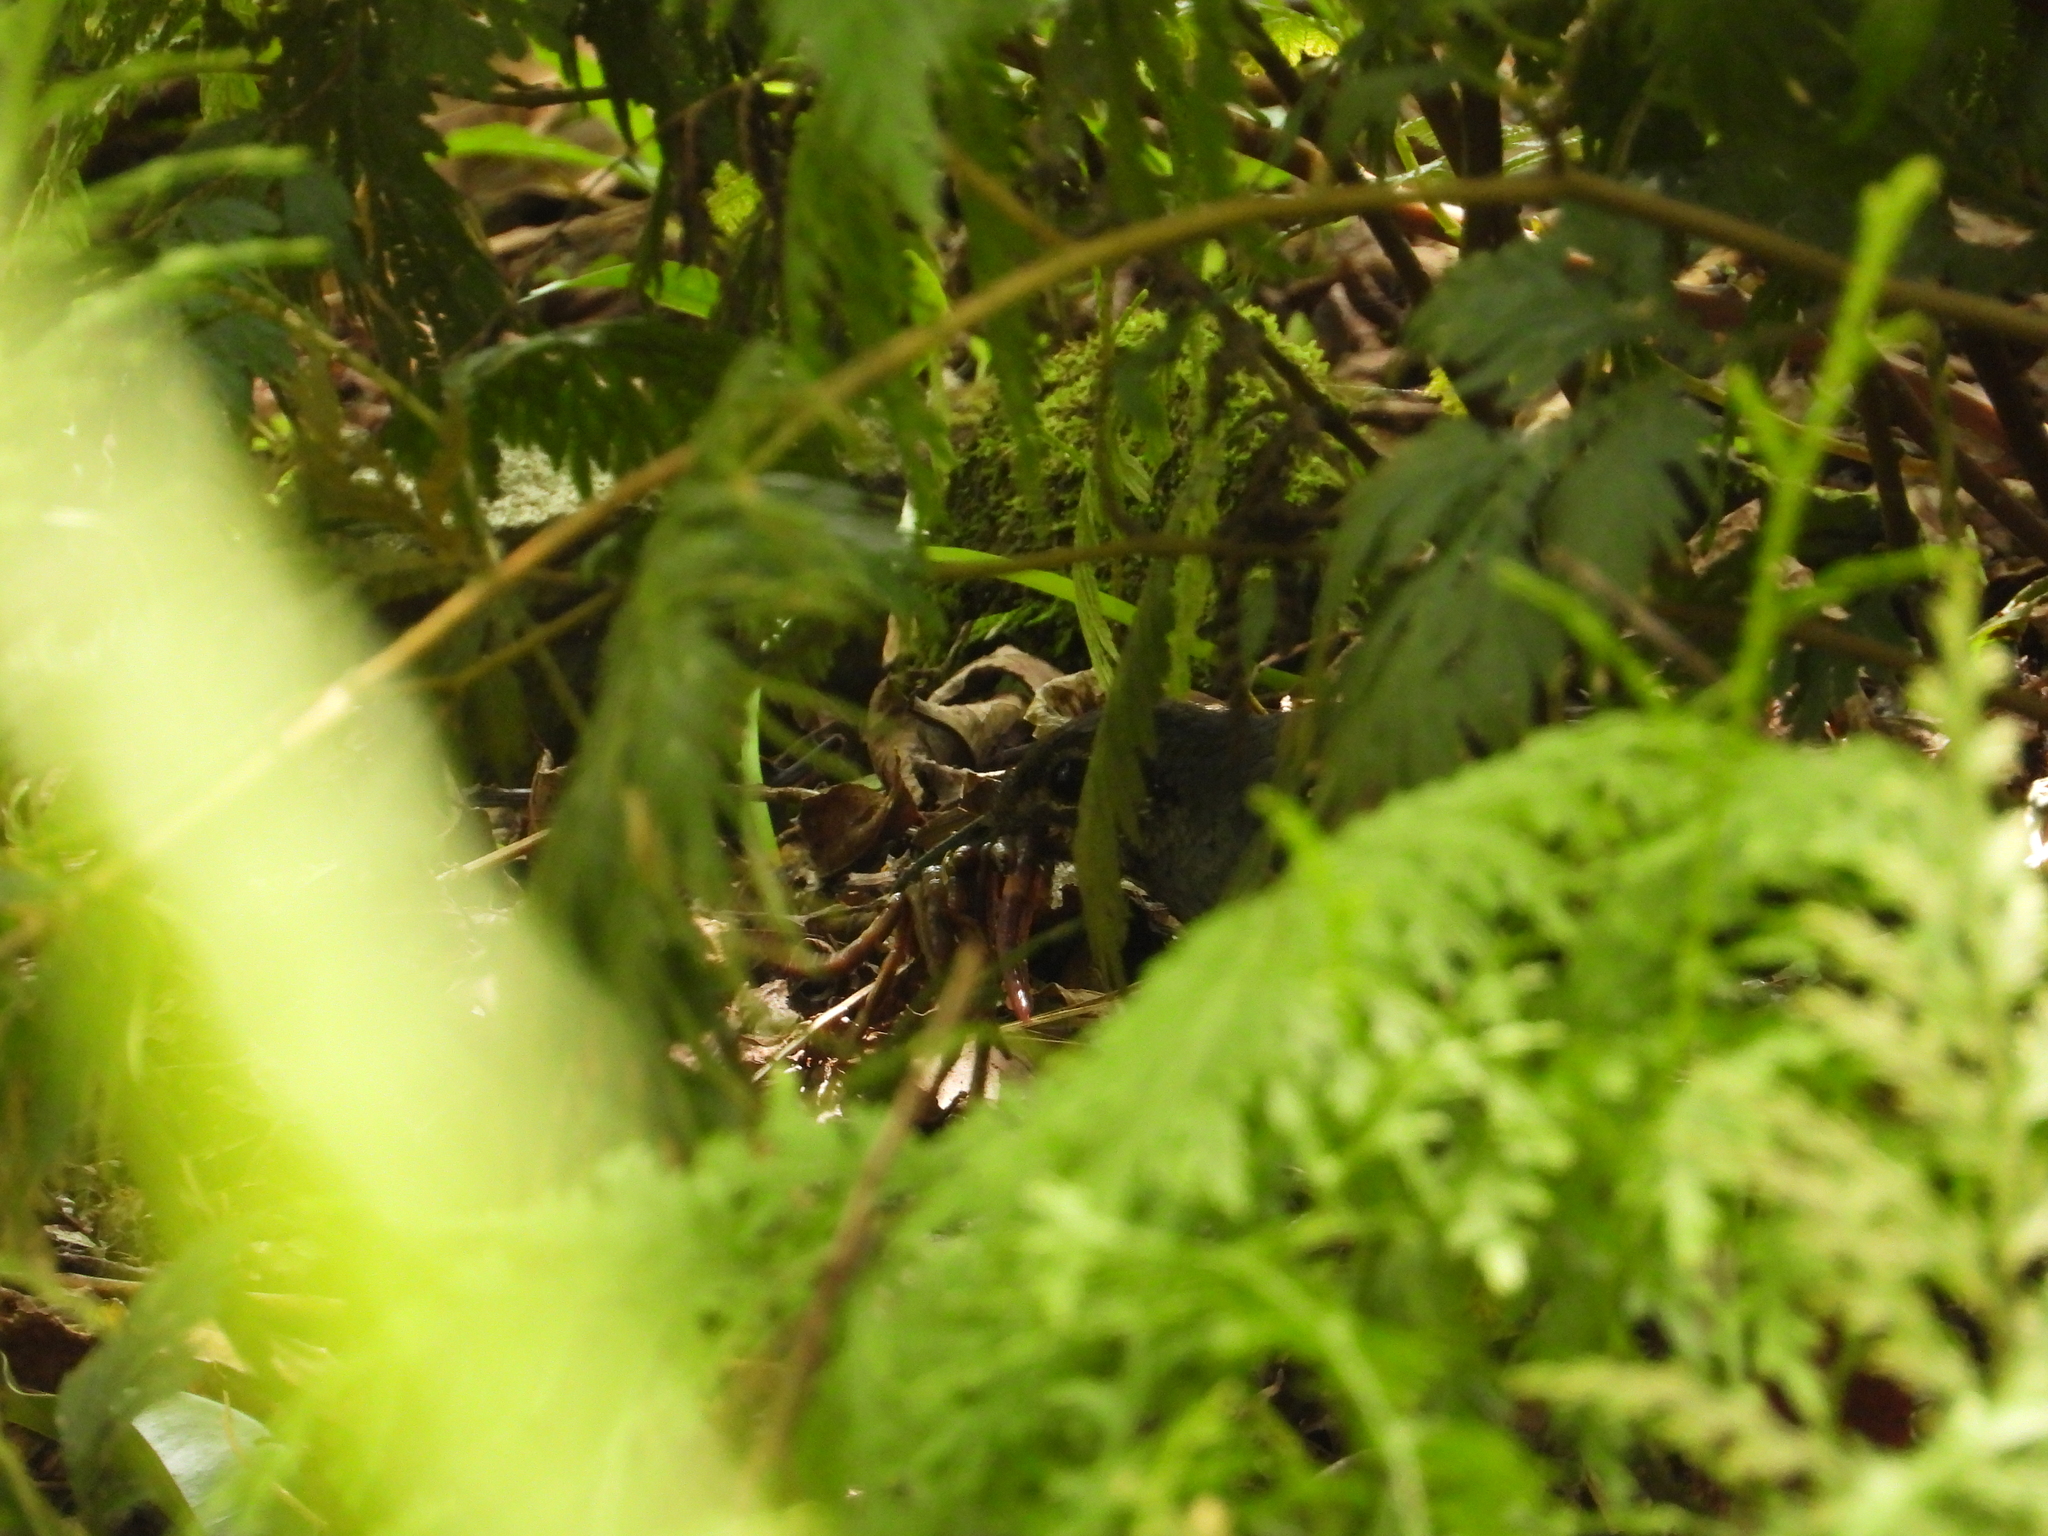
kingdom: Animalia
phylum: Chordata
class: Aves
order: Passeriformes
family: Turdidae
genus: Zoothera
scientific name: Zoothera andromedae
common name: Sunda thrush
